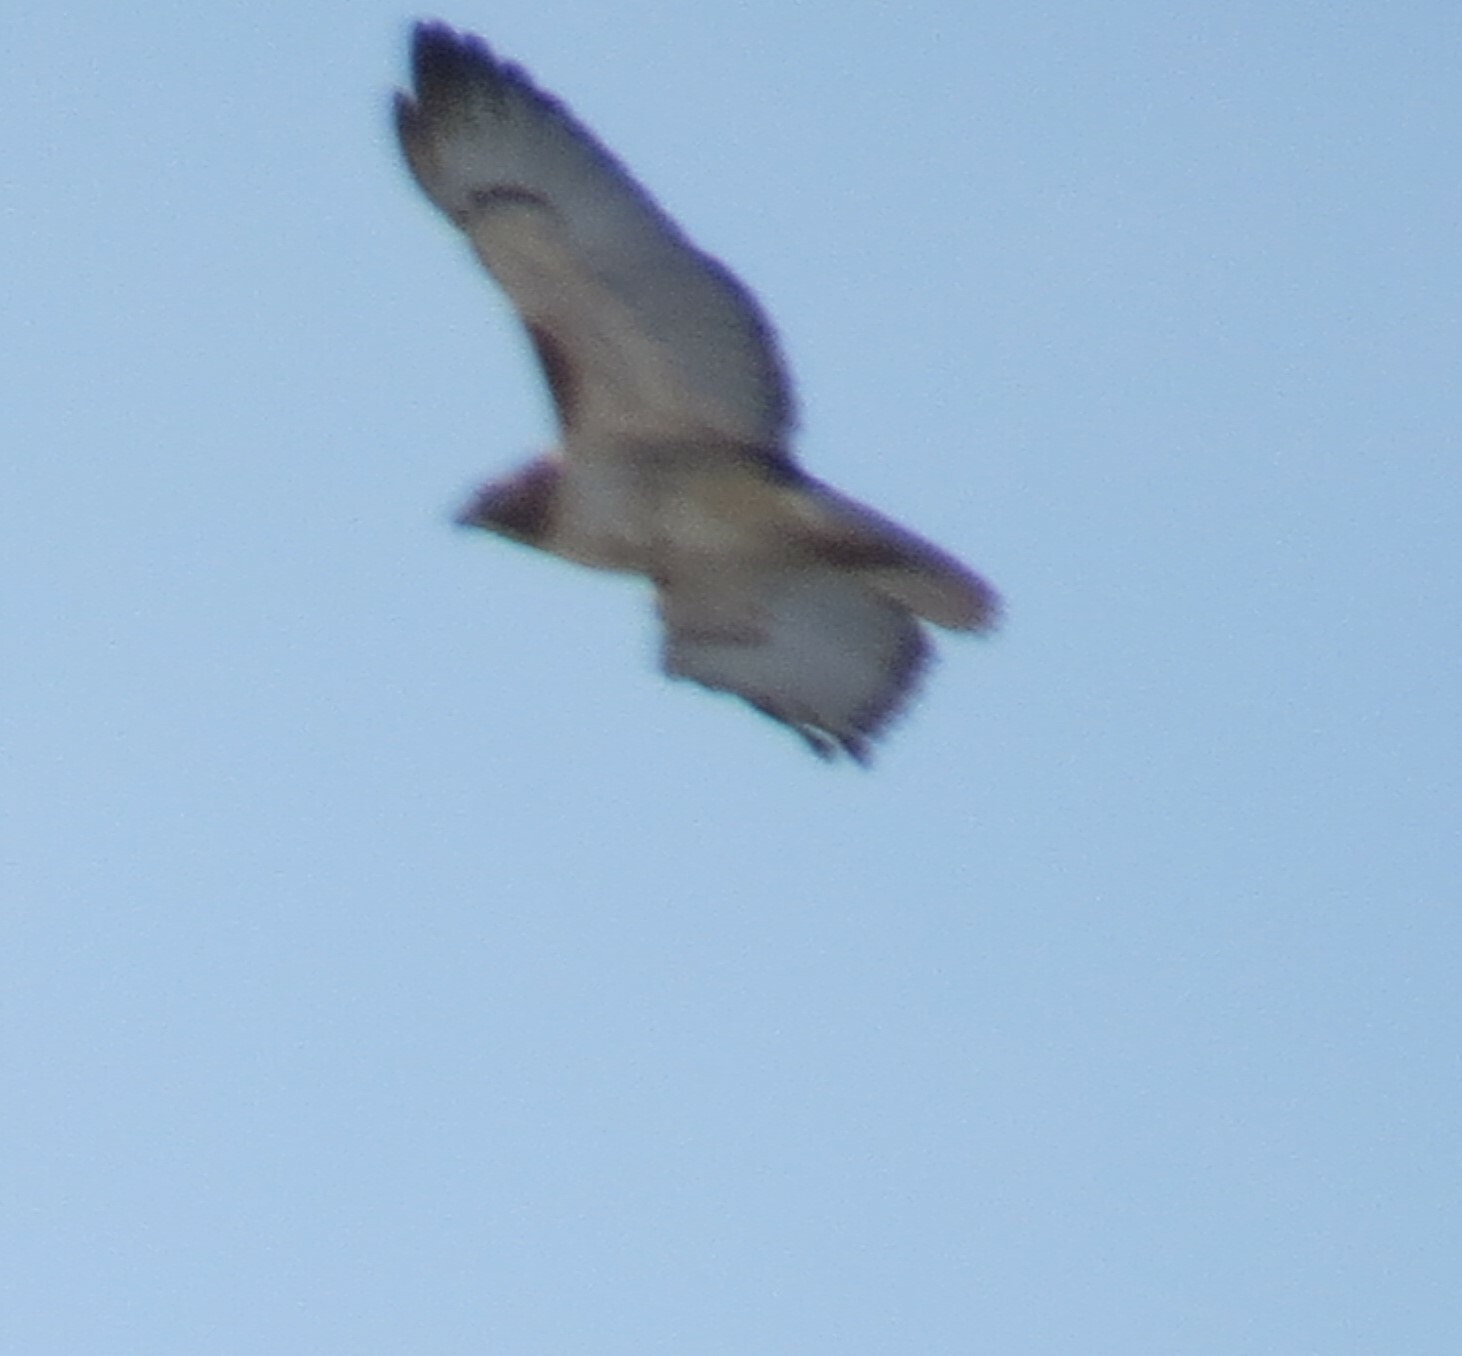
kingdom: Animalia
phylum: Chordata
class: Aves
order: Accipitriformes
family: Accipitridae
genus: Buteo
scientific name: Buteo jamaicensis
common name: Red-tailed hawk
